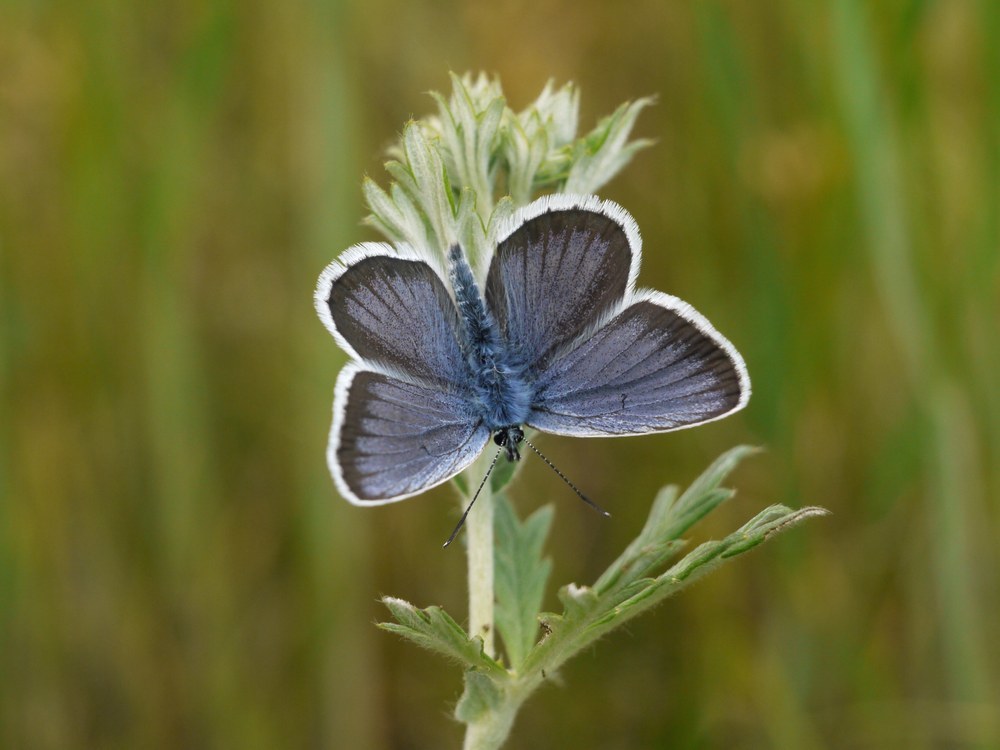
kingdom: Animalia
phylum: Arthropoda
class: Insecta
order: Lepidoptera
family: Lycaenidae
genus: Plebejus
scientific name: Plebejus argus
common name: Silver-studded blue
